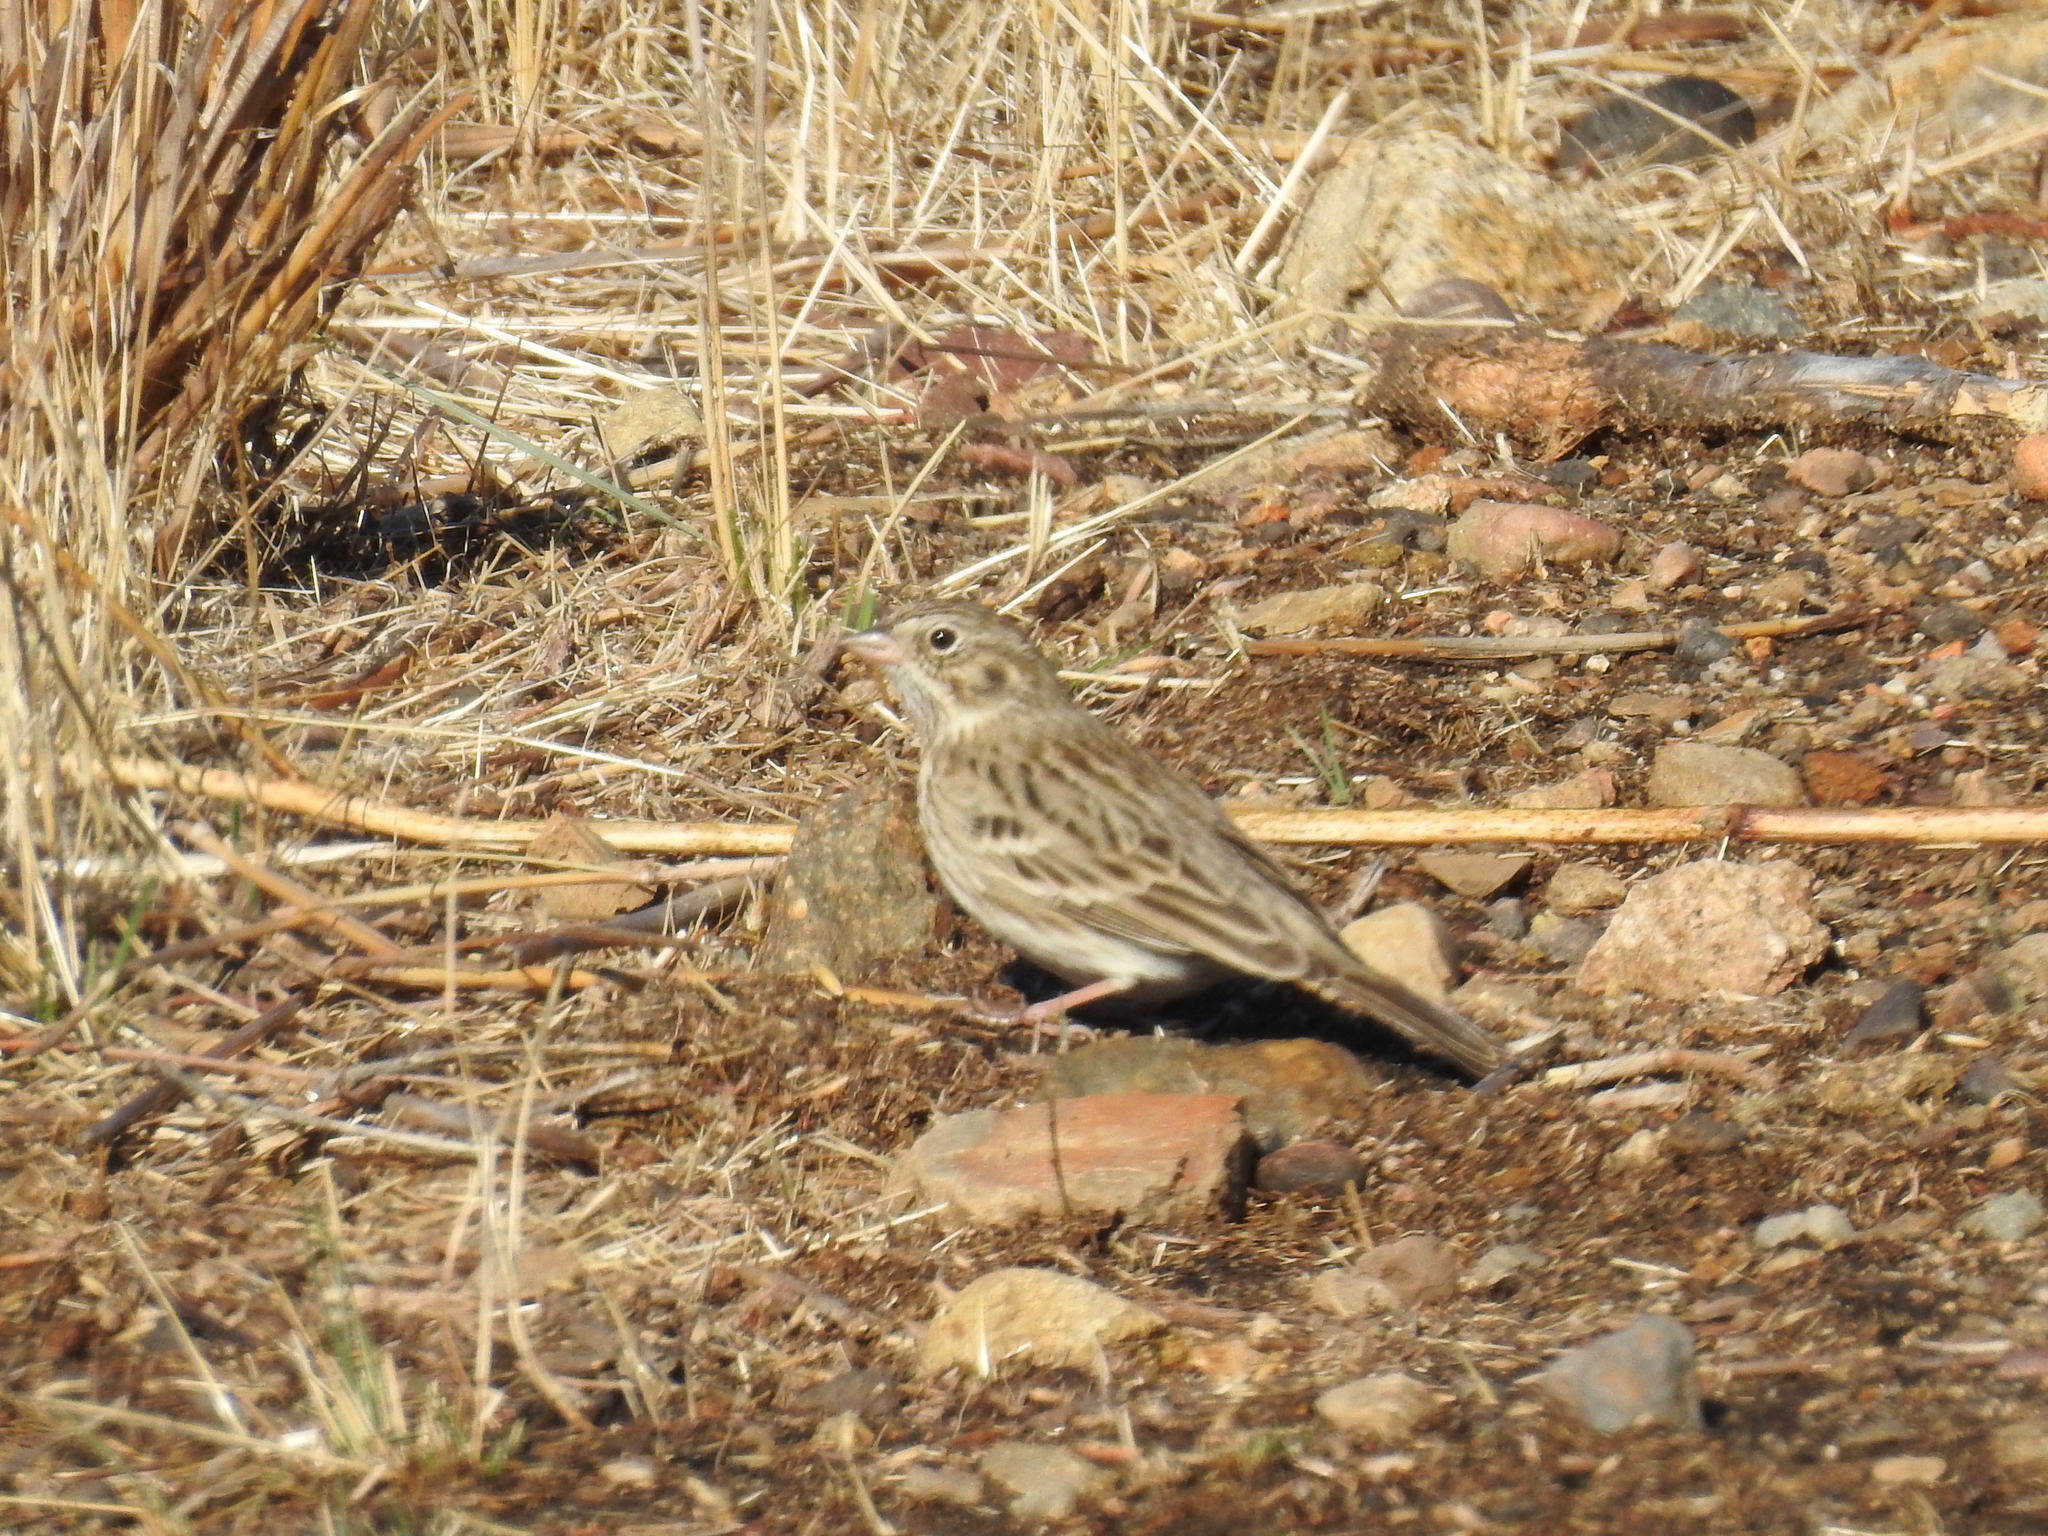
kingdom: Animalia
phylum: Chordata
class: Aves
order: Passeriformes
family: Passerellidae
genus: Pooecetes
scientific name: Pooecetes gramineus
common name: Vesper sparrow
